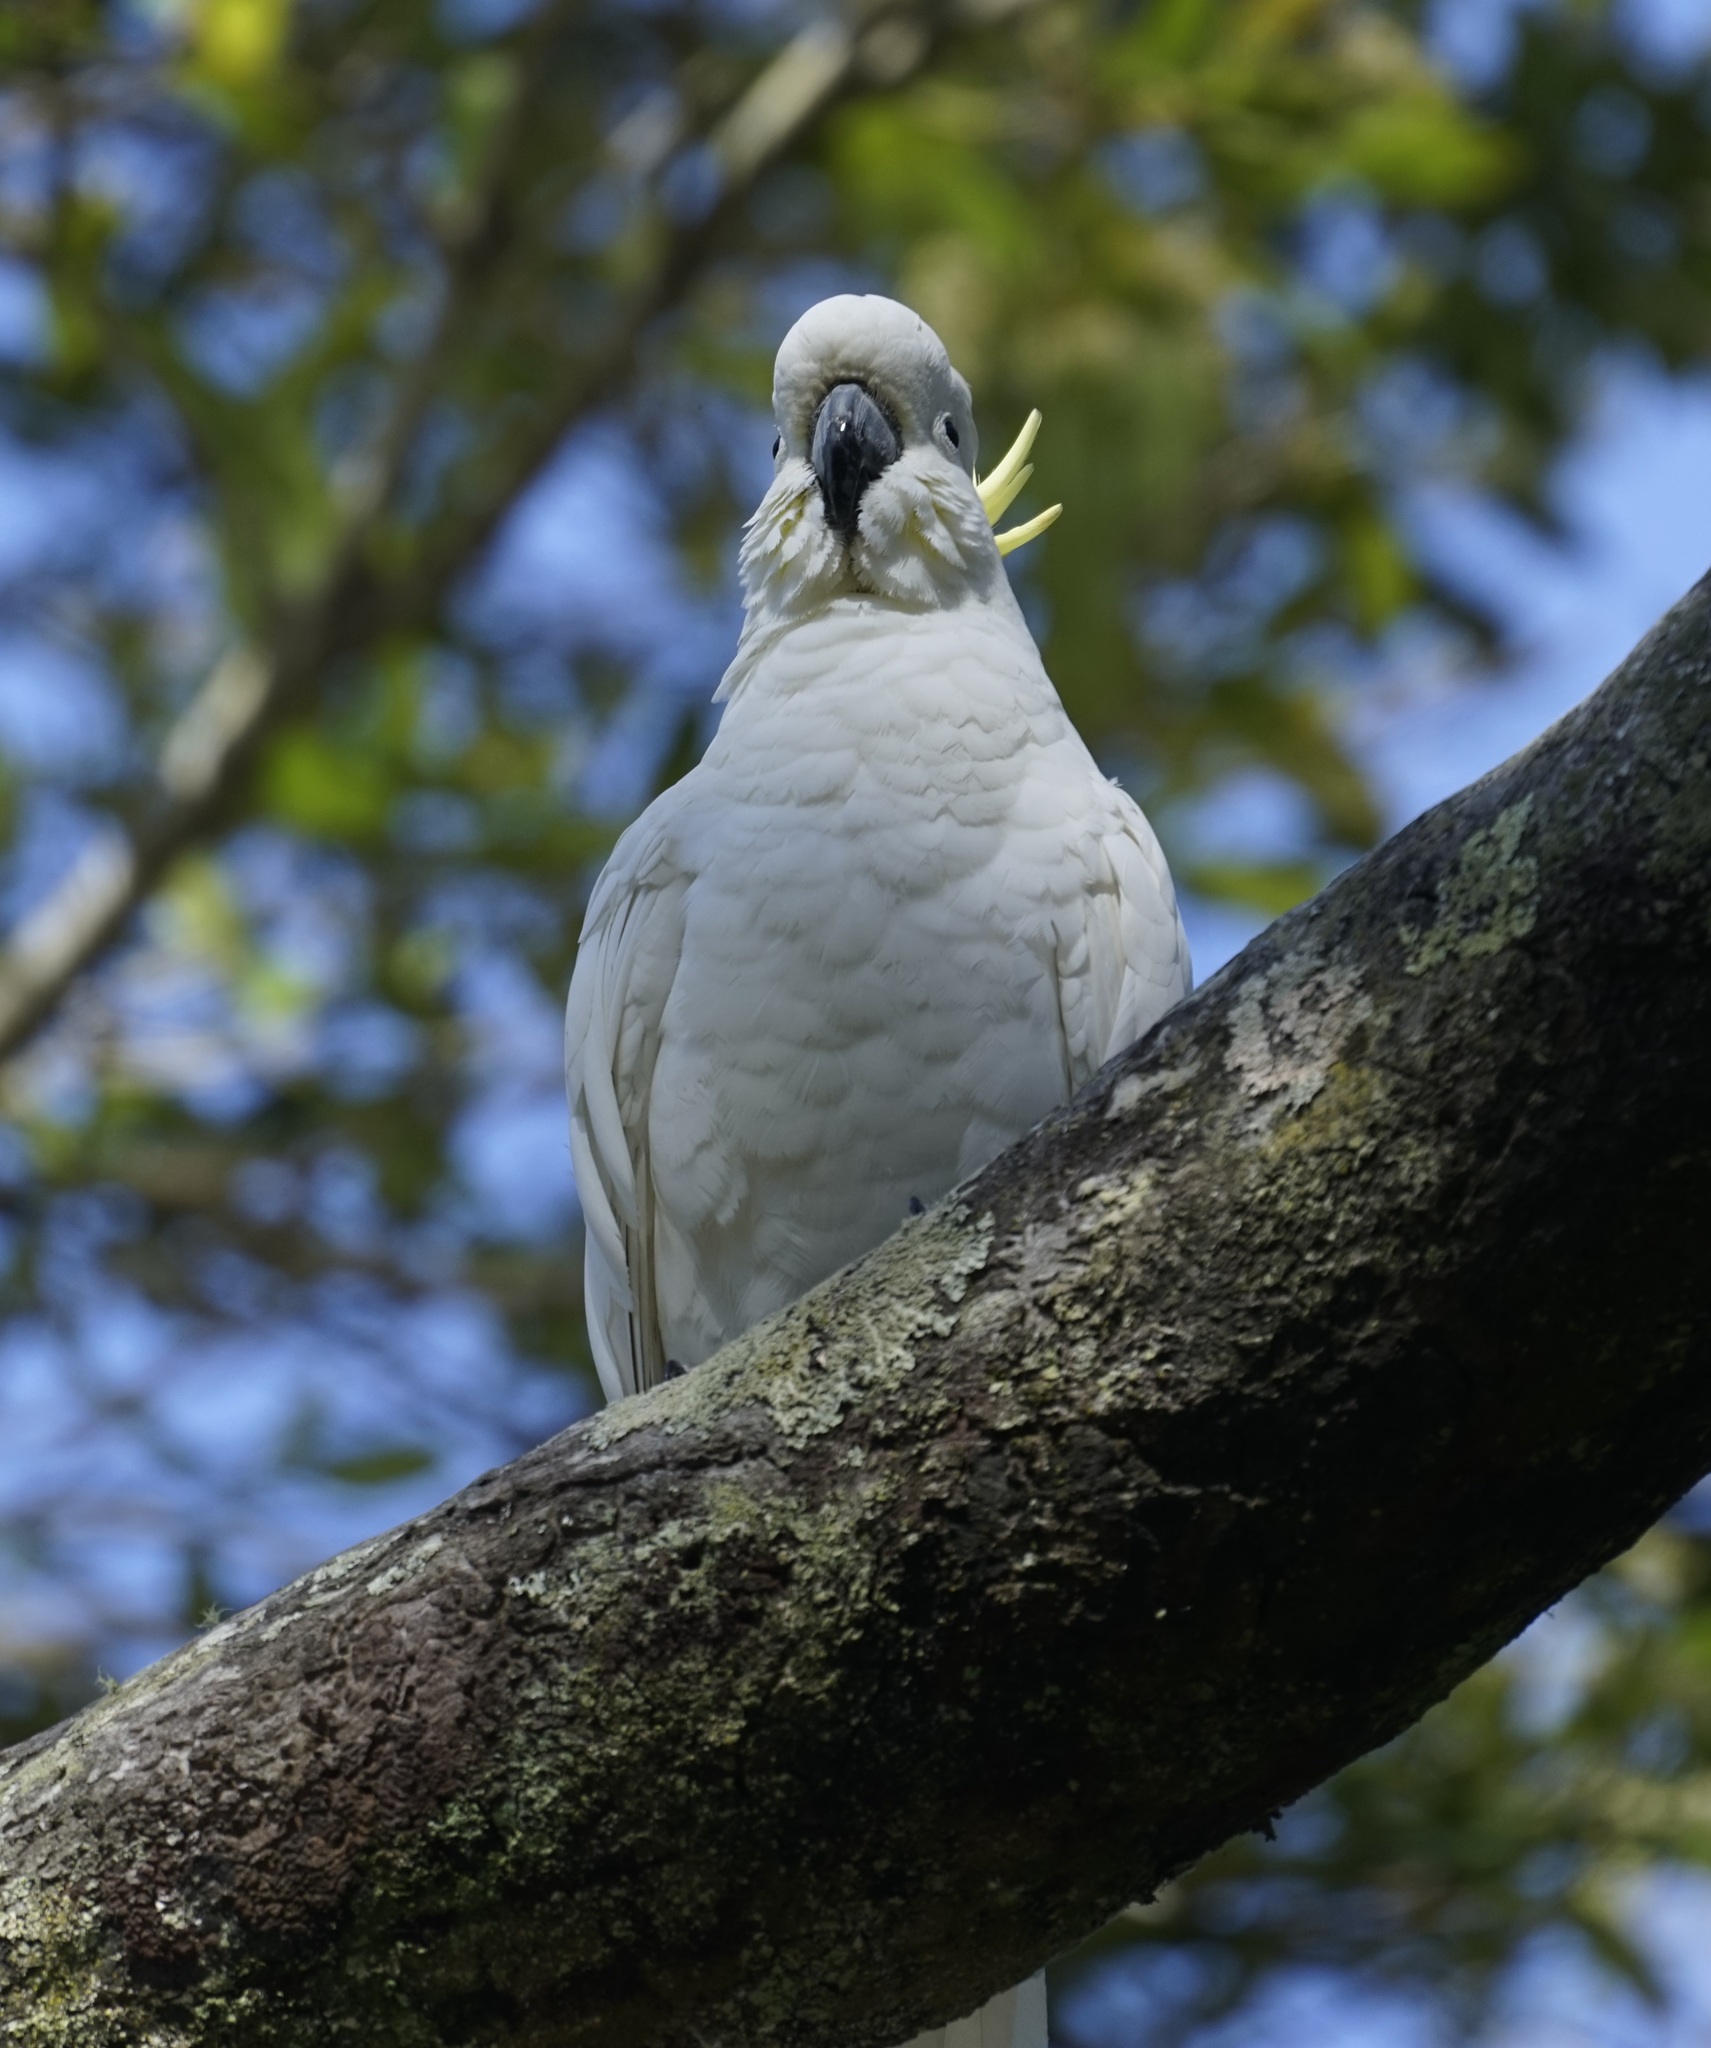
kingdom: Animalia
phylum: Chordata
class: Aves
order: Psittaciformes
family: Psittacidae
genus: Cacatua
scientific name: Cacatua galerita
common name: Sulphur-crested cockatoo
